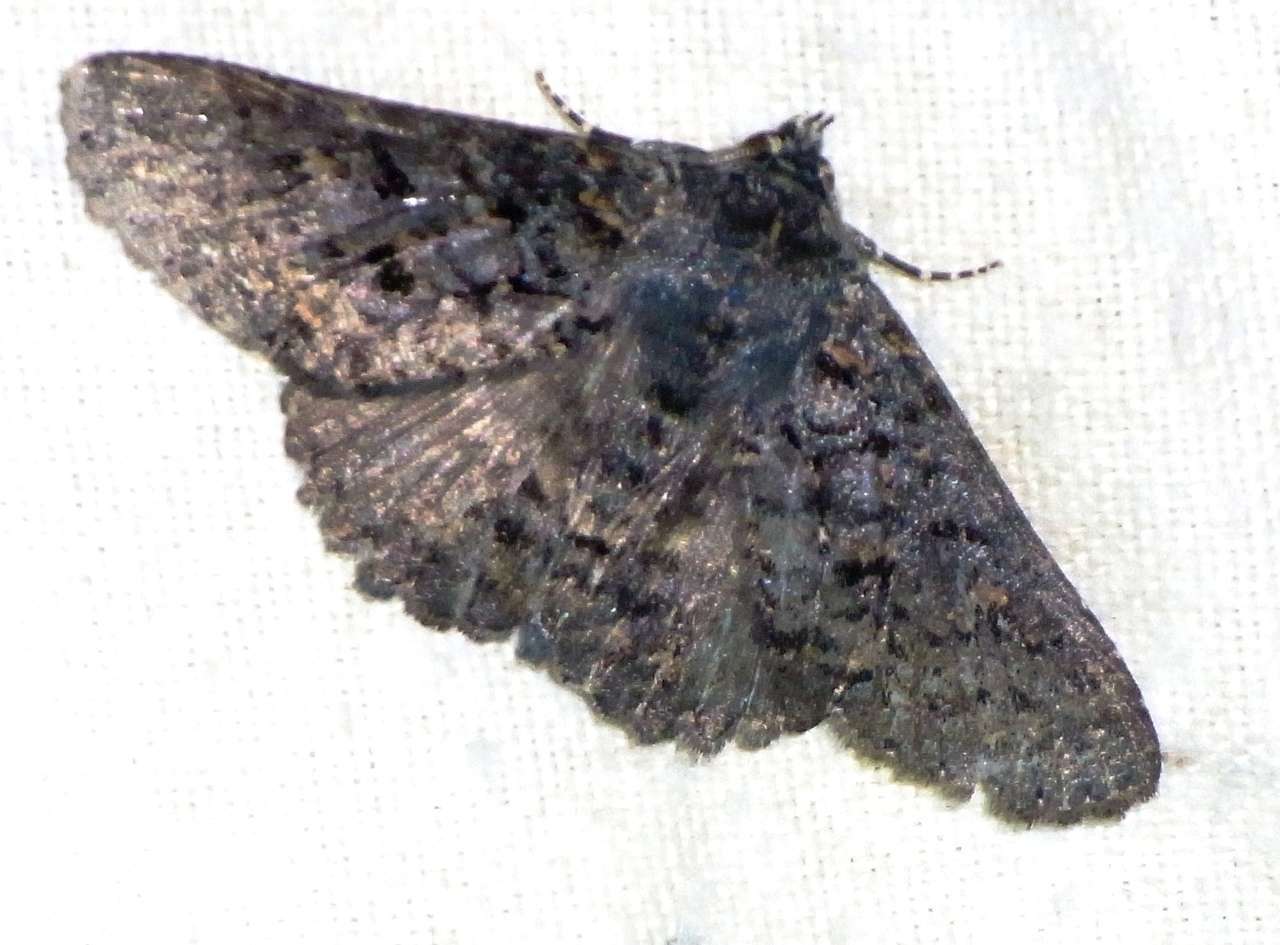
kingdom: Animalia
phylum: Arthropoda
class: Insecta
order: Lepidoptera
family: Erebidae
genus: Praxis
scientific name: Praxis edwardsii
